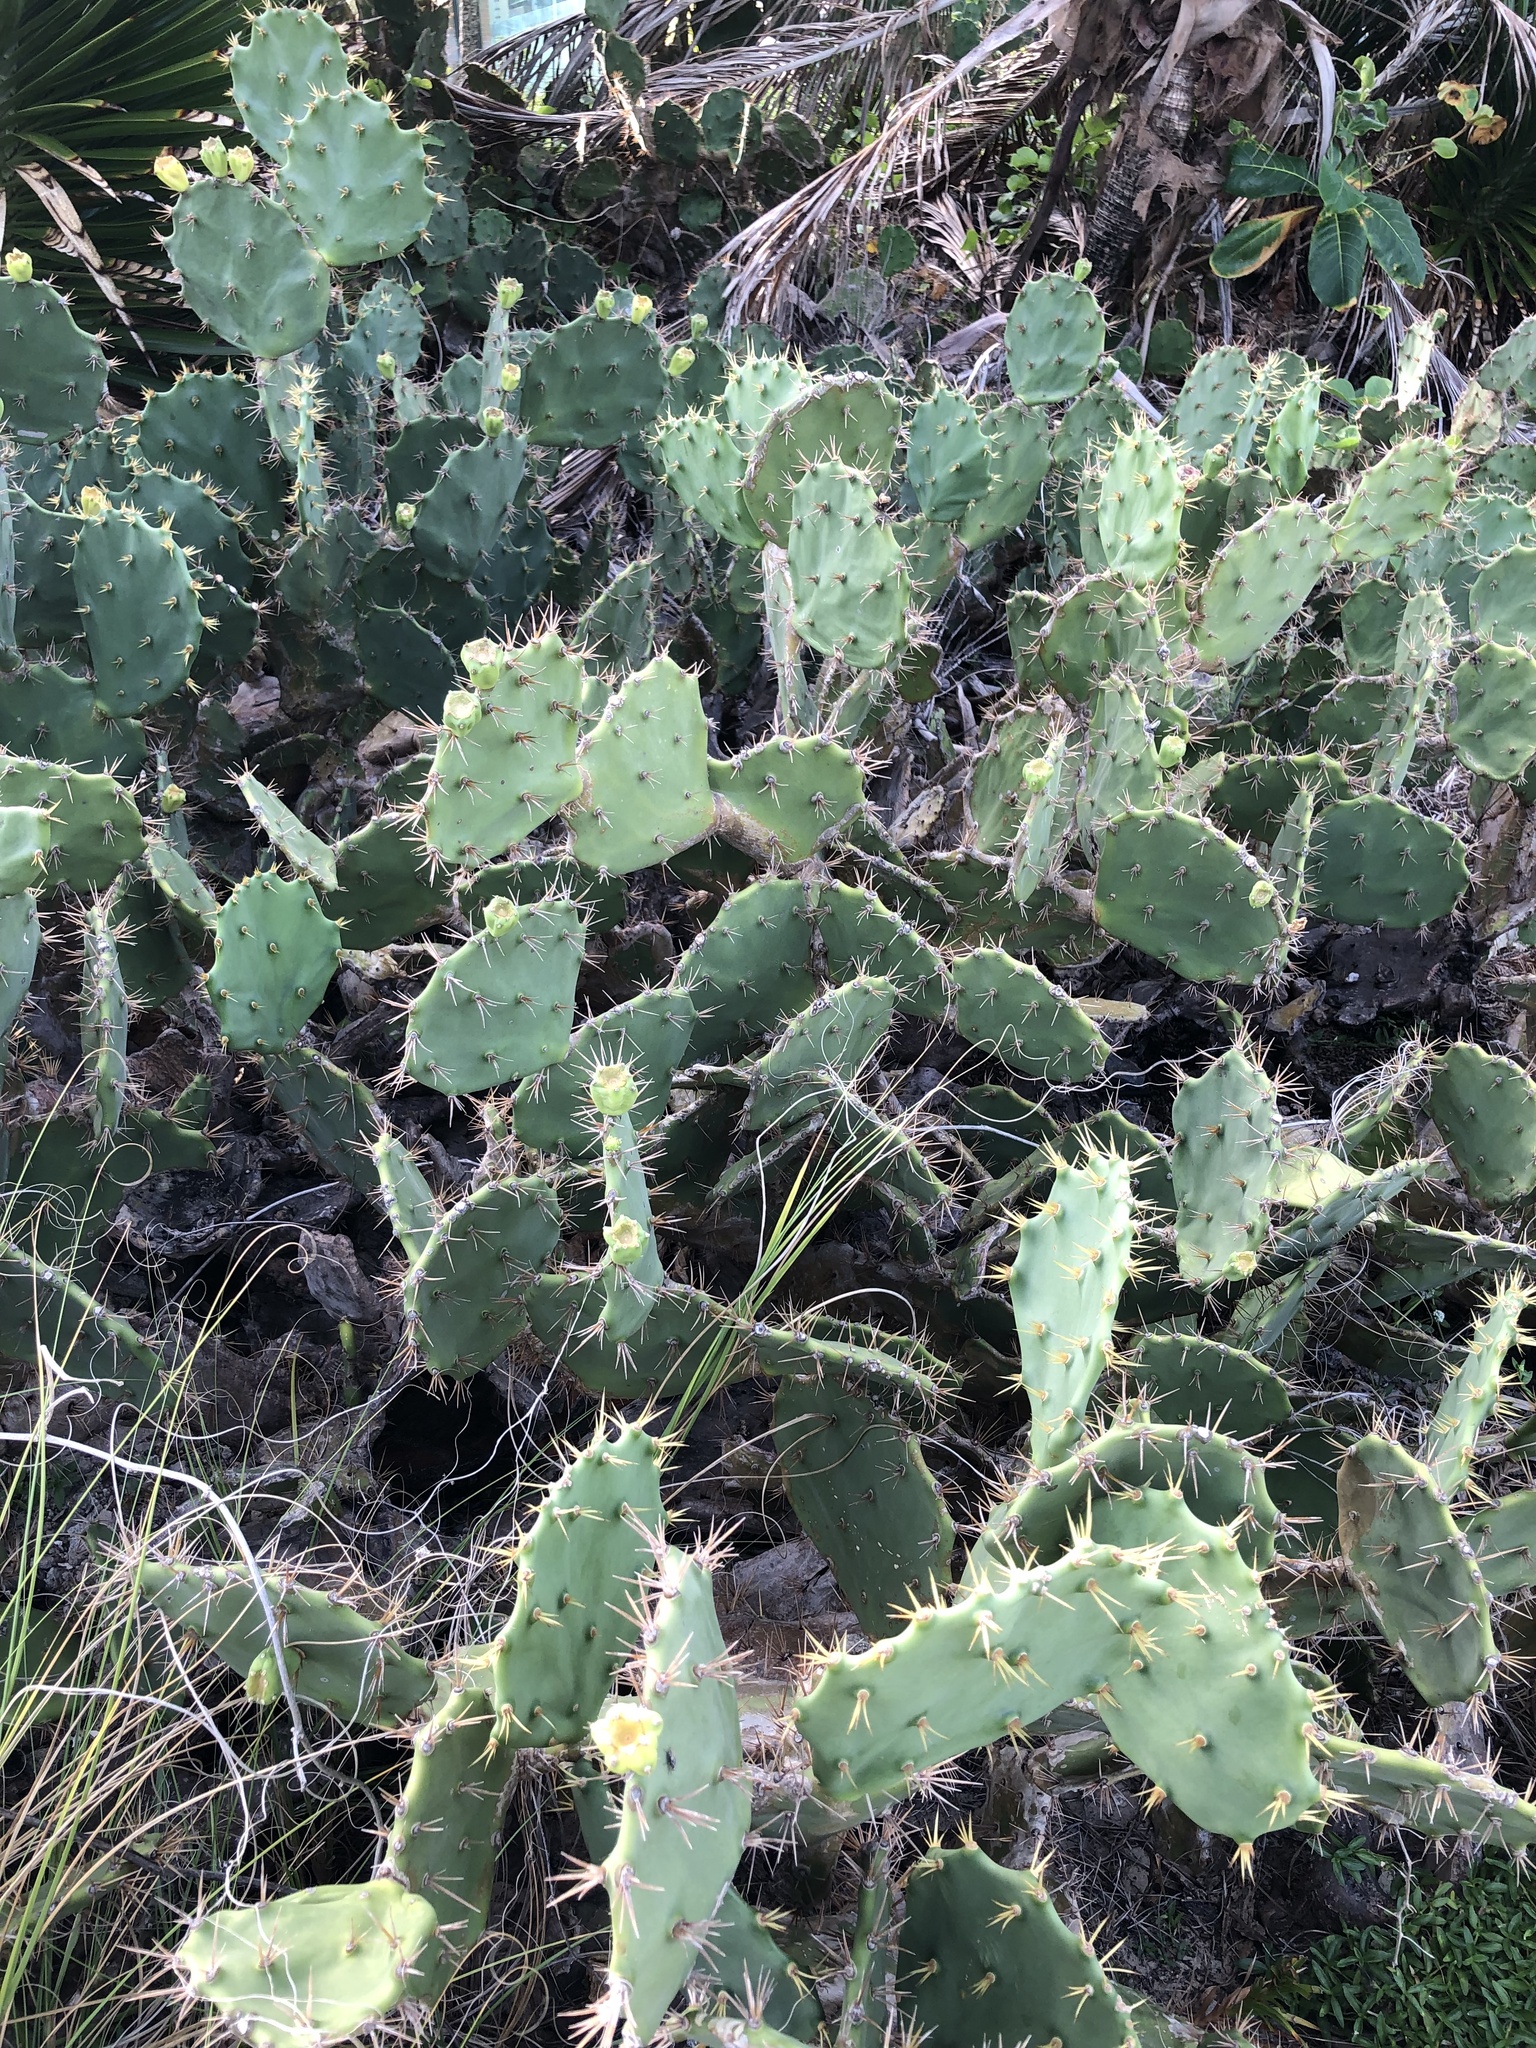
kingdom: Plantae
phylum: Tracheophyta
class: Magnoliopsida
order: Caryophyllales
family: Cactaceae
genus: Opuntia
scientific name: Opuntia dillenii
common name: Sour prickle
